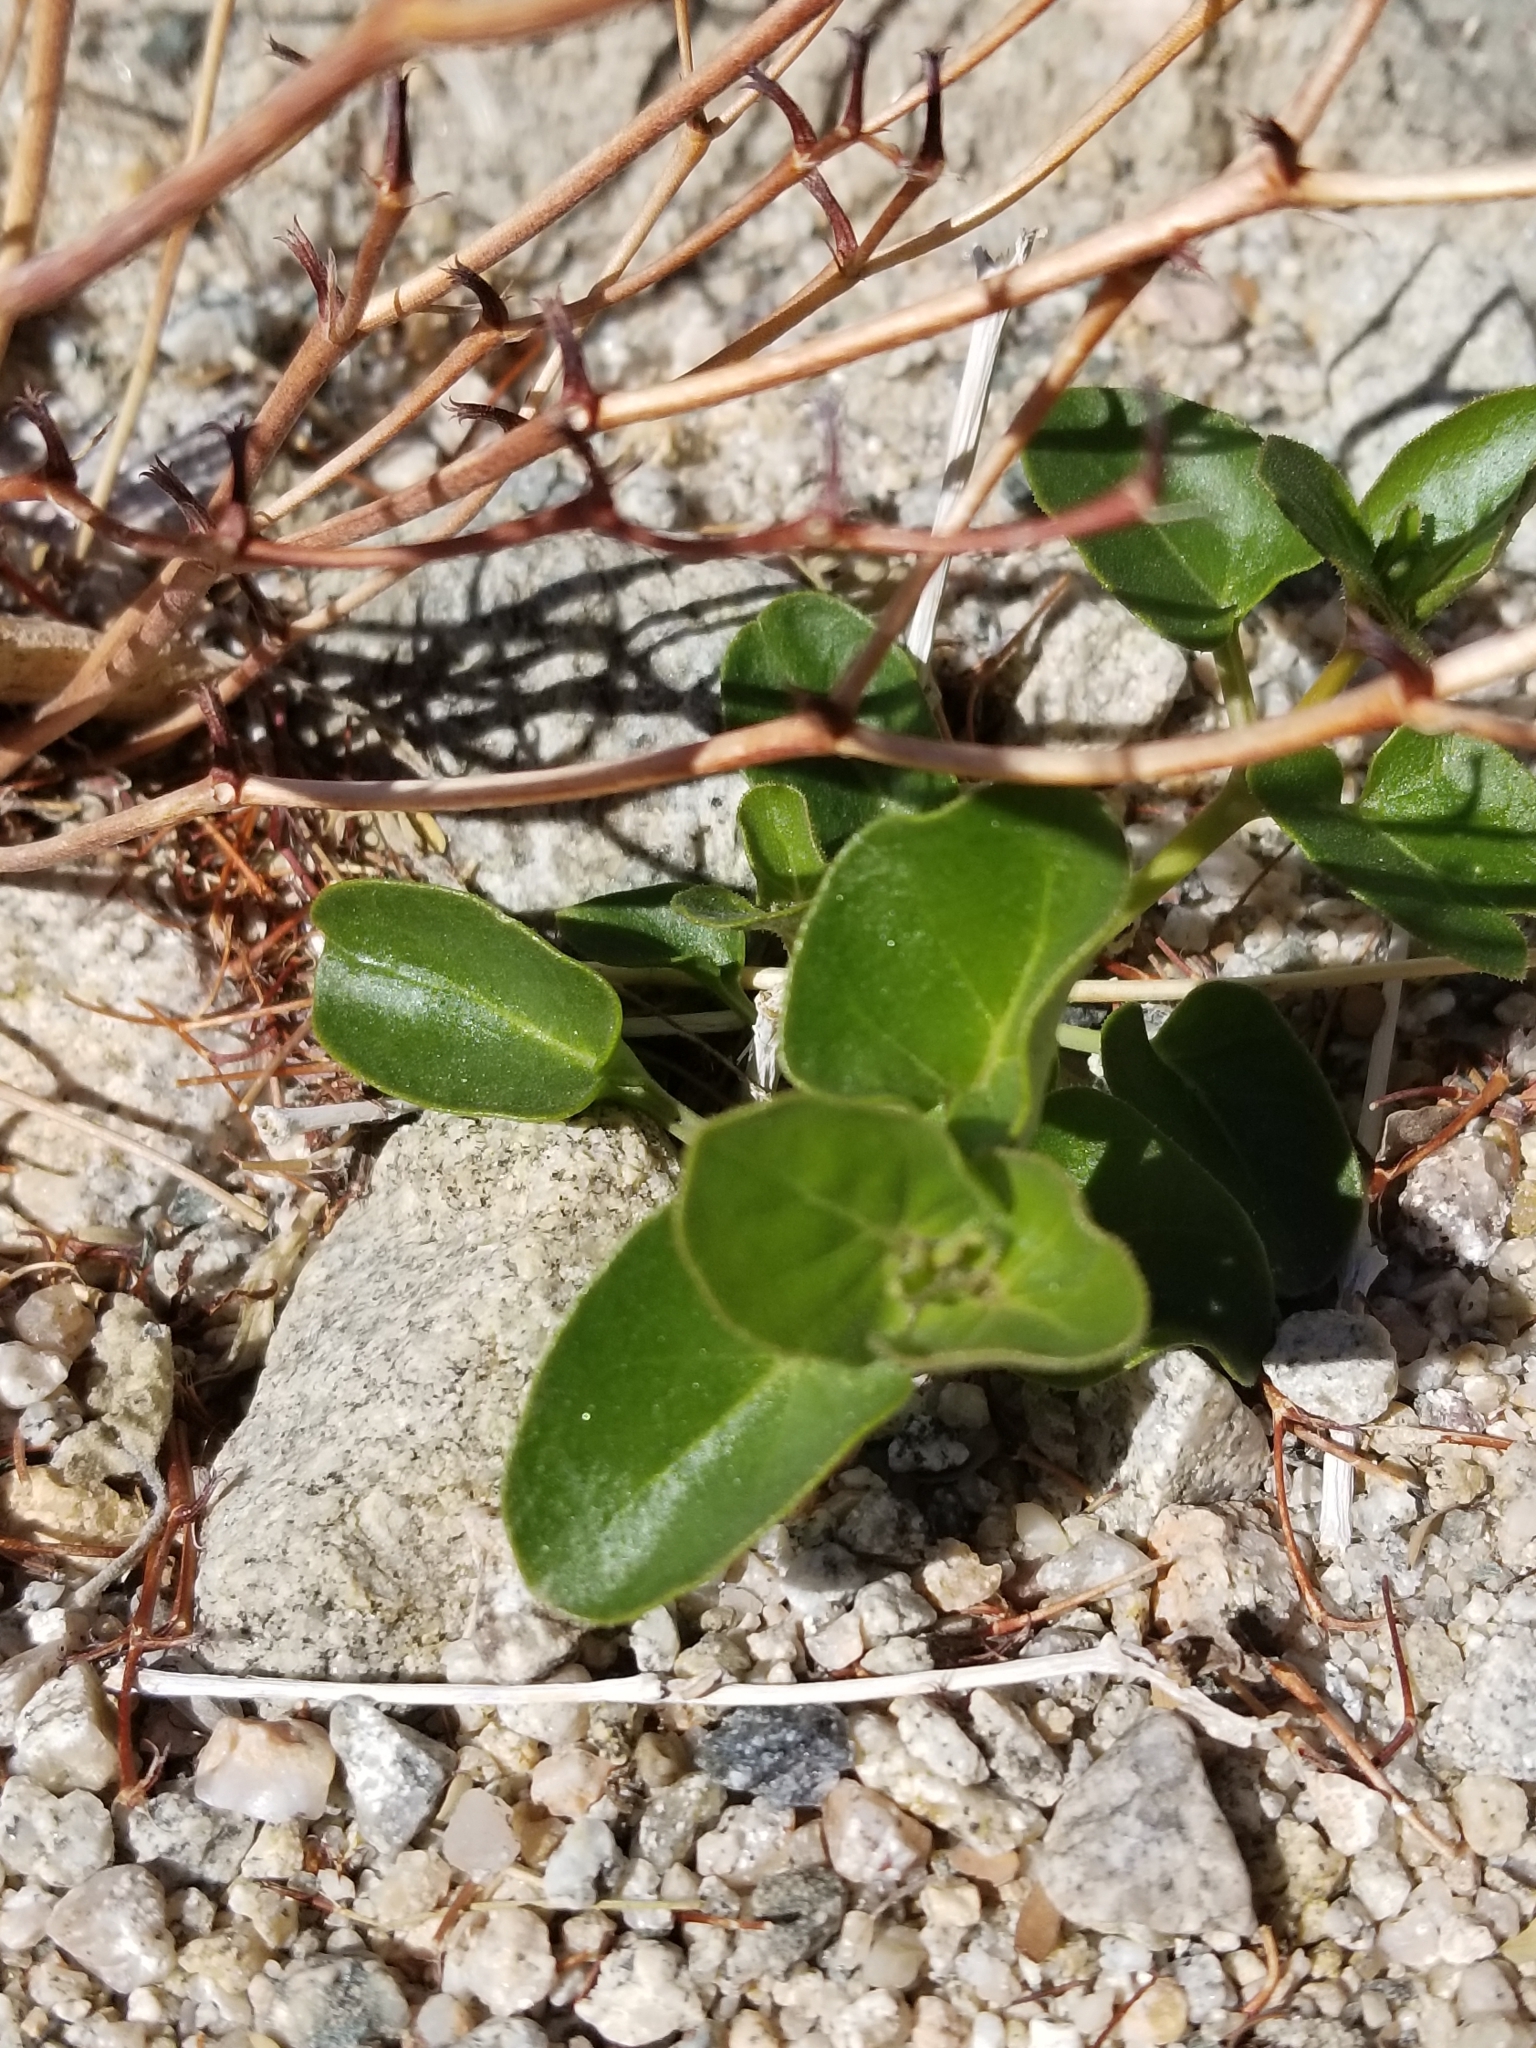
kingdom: Plantae
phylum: Tracheophyta
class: Magnoliopsida
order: Caryophyllales
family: Nyctaginaceae
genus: Mirabilis
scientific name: Mirabilis laevis
